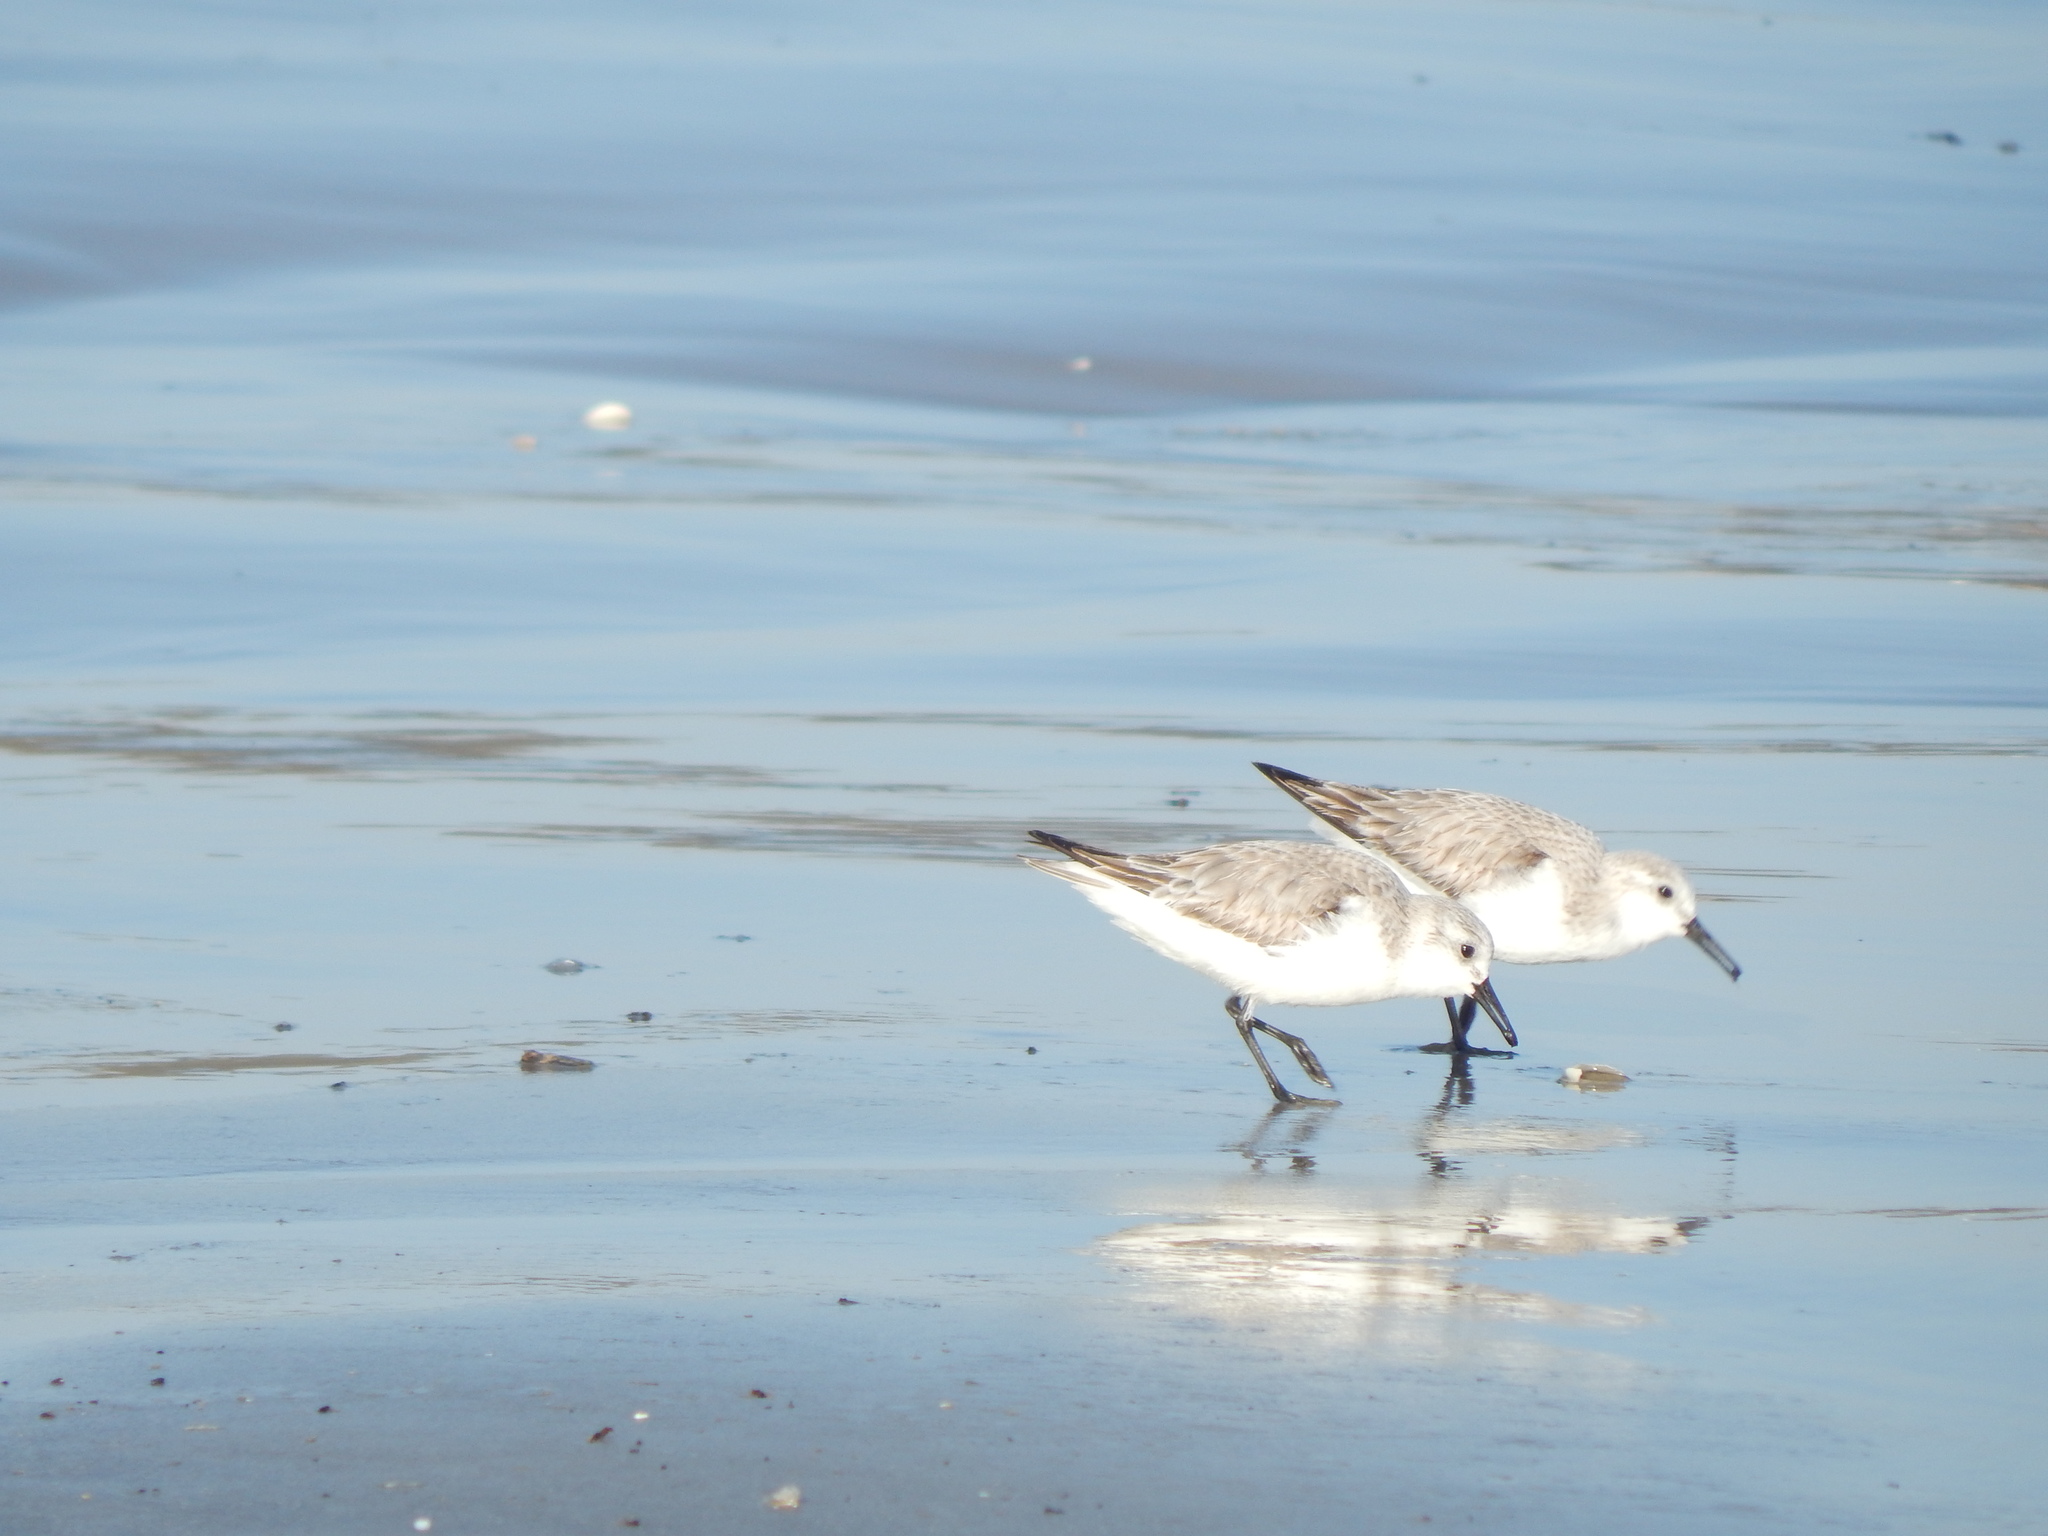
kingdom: Animalia
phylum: Chordata
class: Aves
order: Charadriiformes
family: Scolopacidae
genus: Calidris
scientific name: Calidris alba
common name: Sanderling
